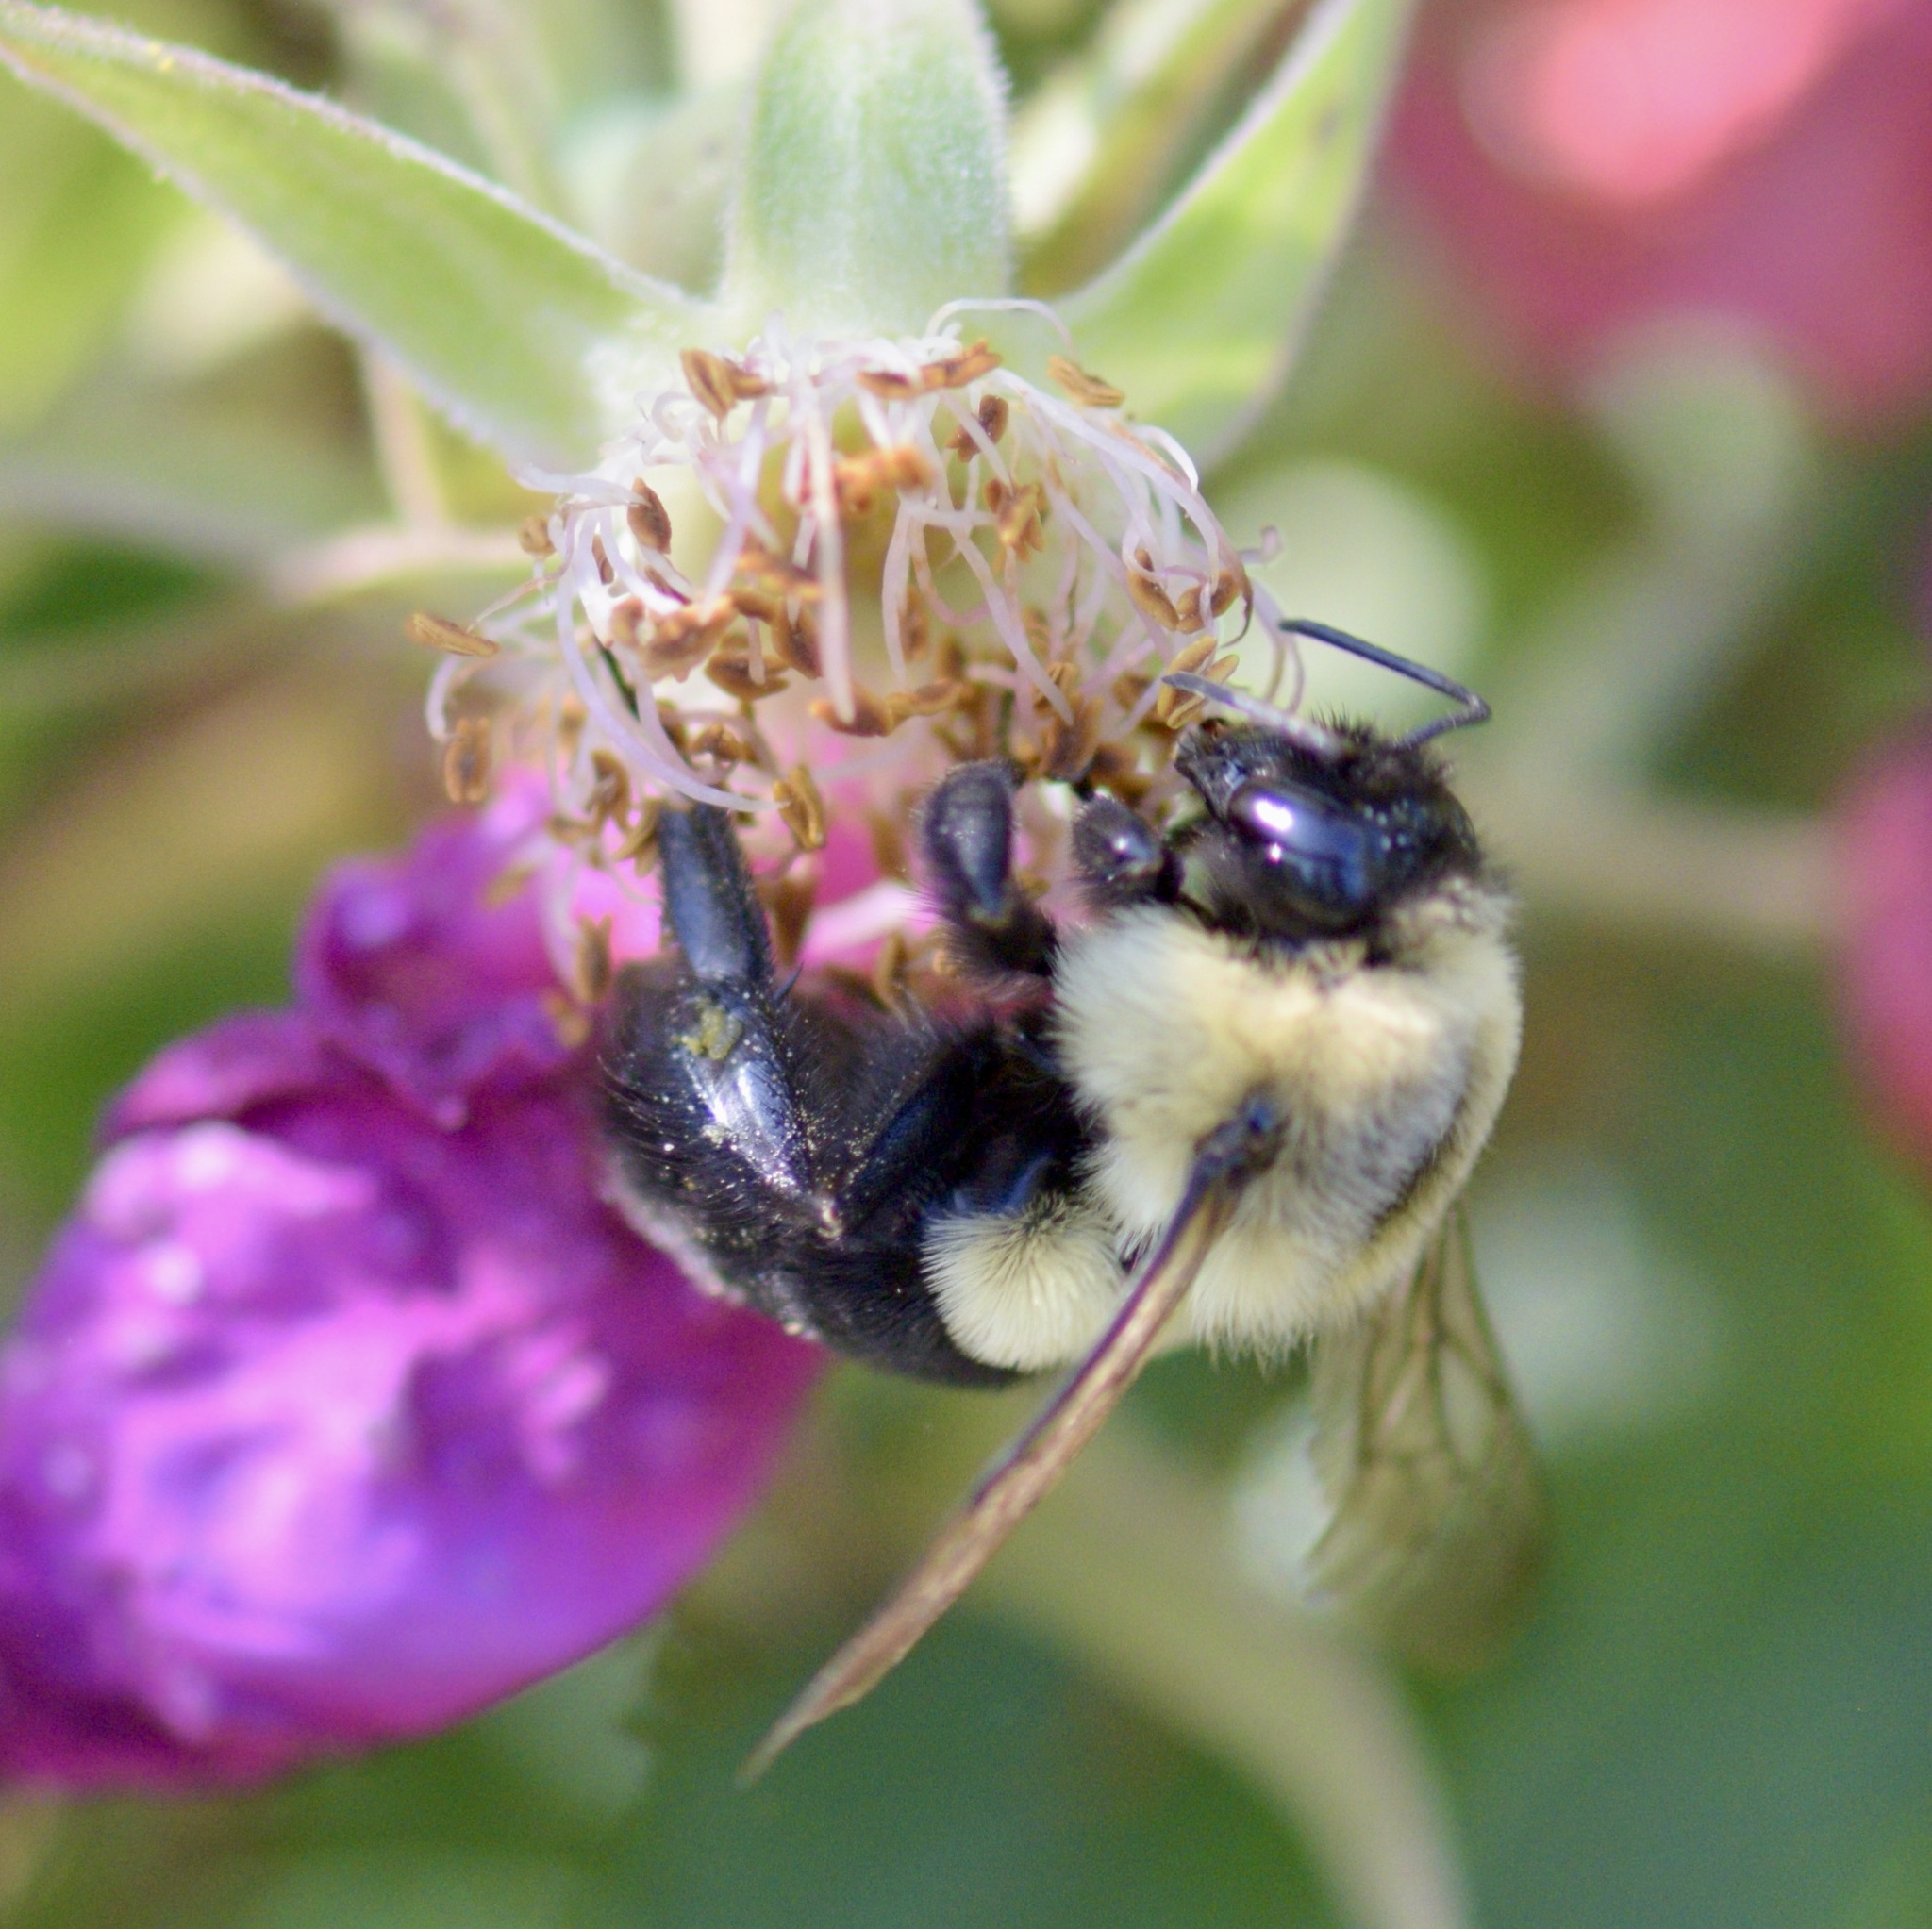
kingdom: Animalia
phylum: Arthropoda
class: Insecta
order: Hymenoptera
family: Apidae
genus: Bombus
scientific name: Bombus impatiens
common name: Common eastern bumble bee
